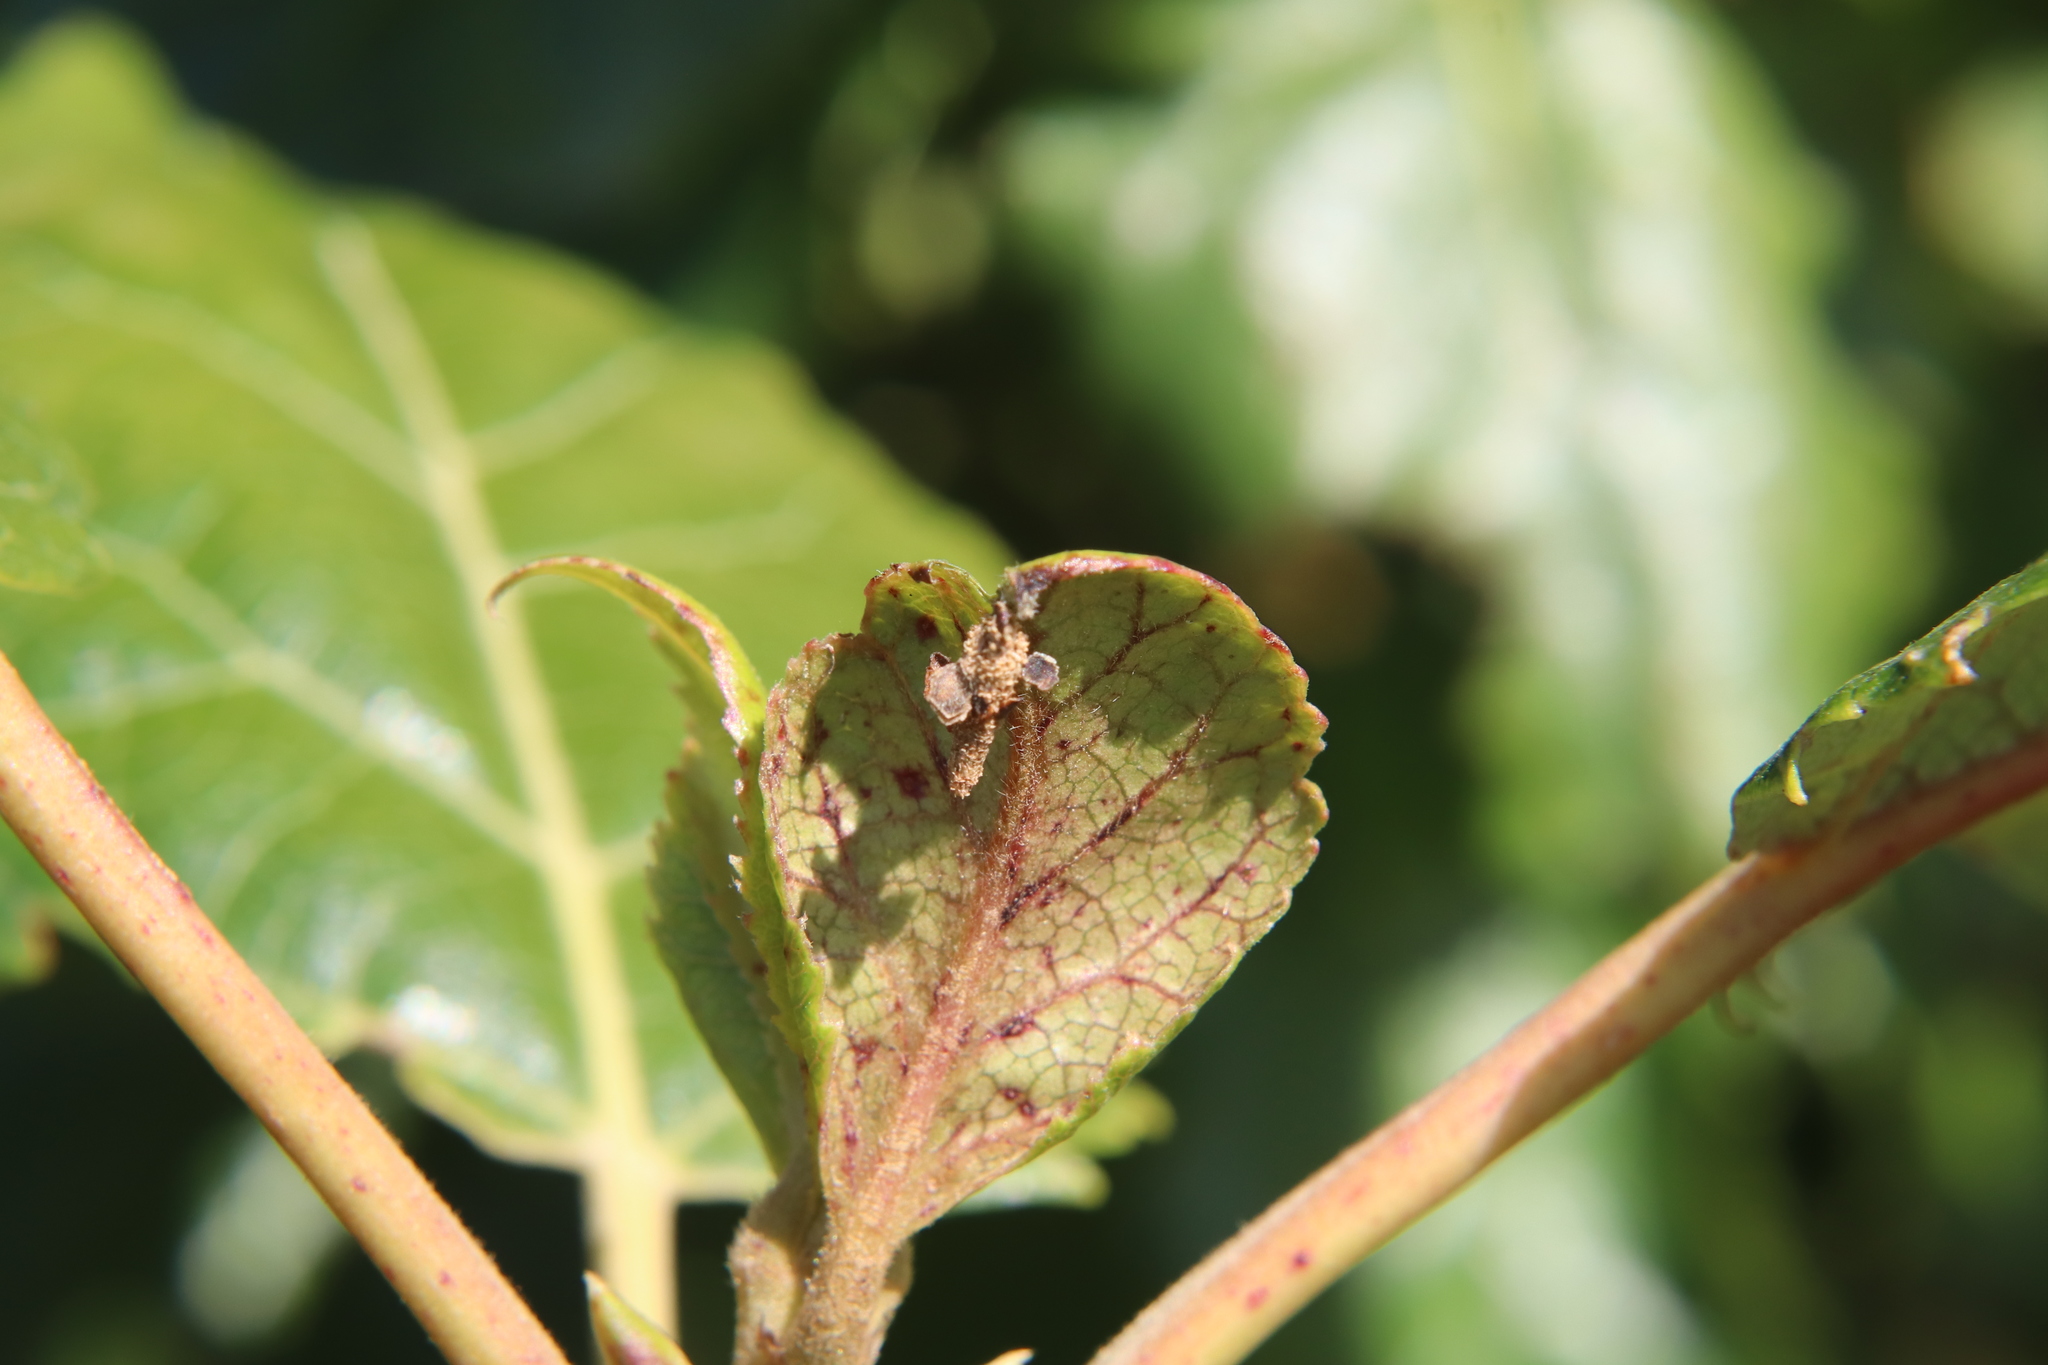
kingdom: Animalia
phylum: Arthropoda
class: Insecta
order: Lepidoptera
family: Psychidae
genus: Liothula
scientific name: Liothula omnivora
